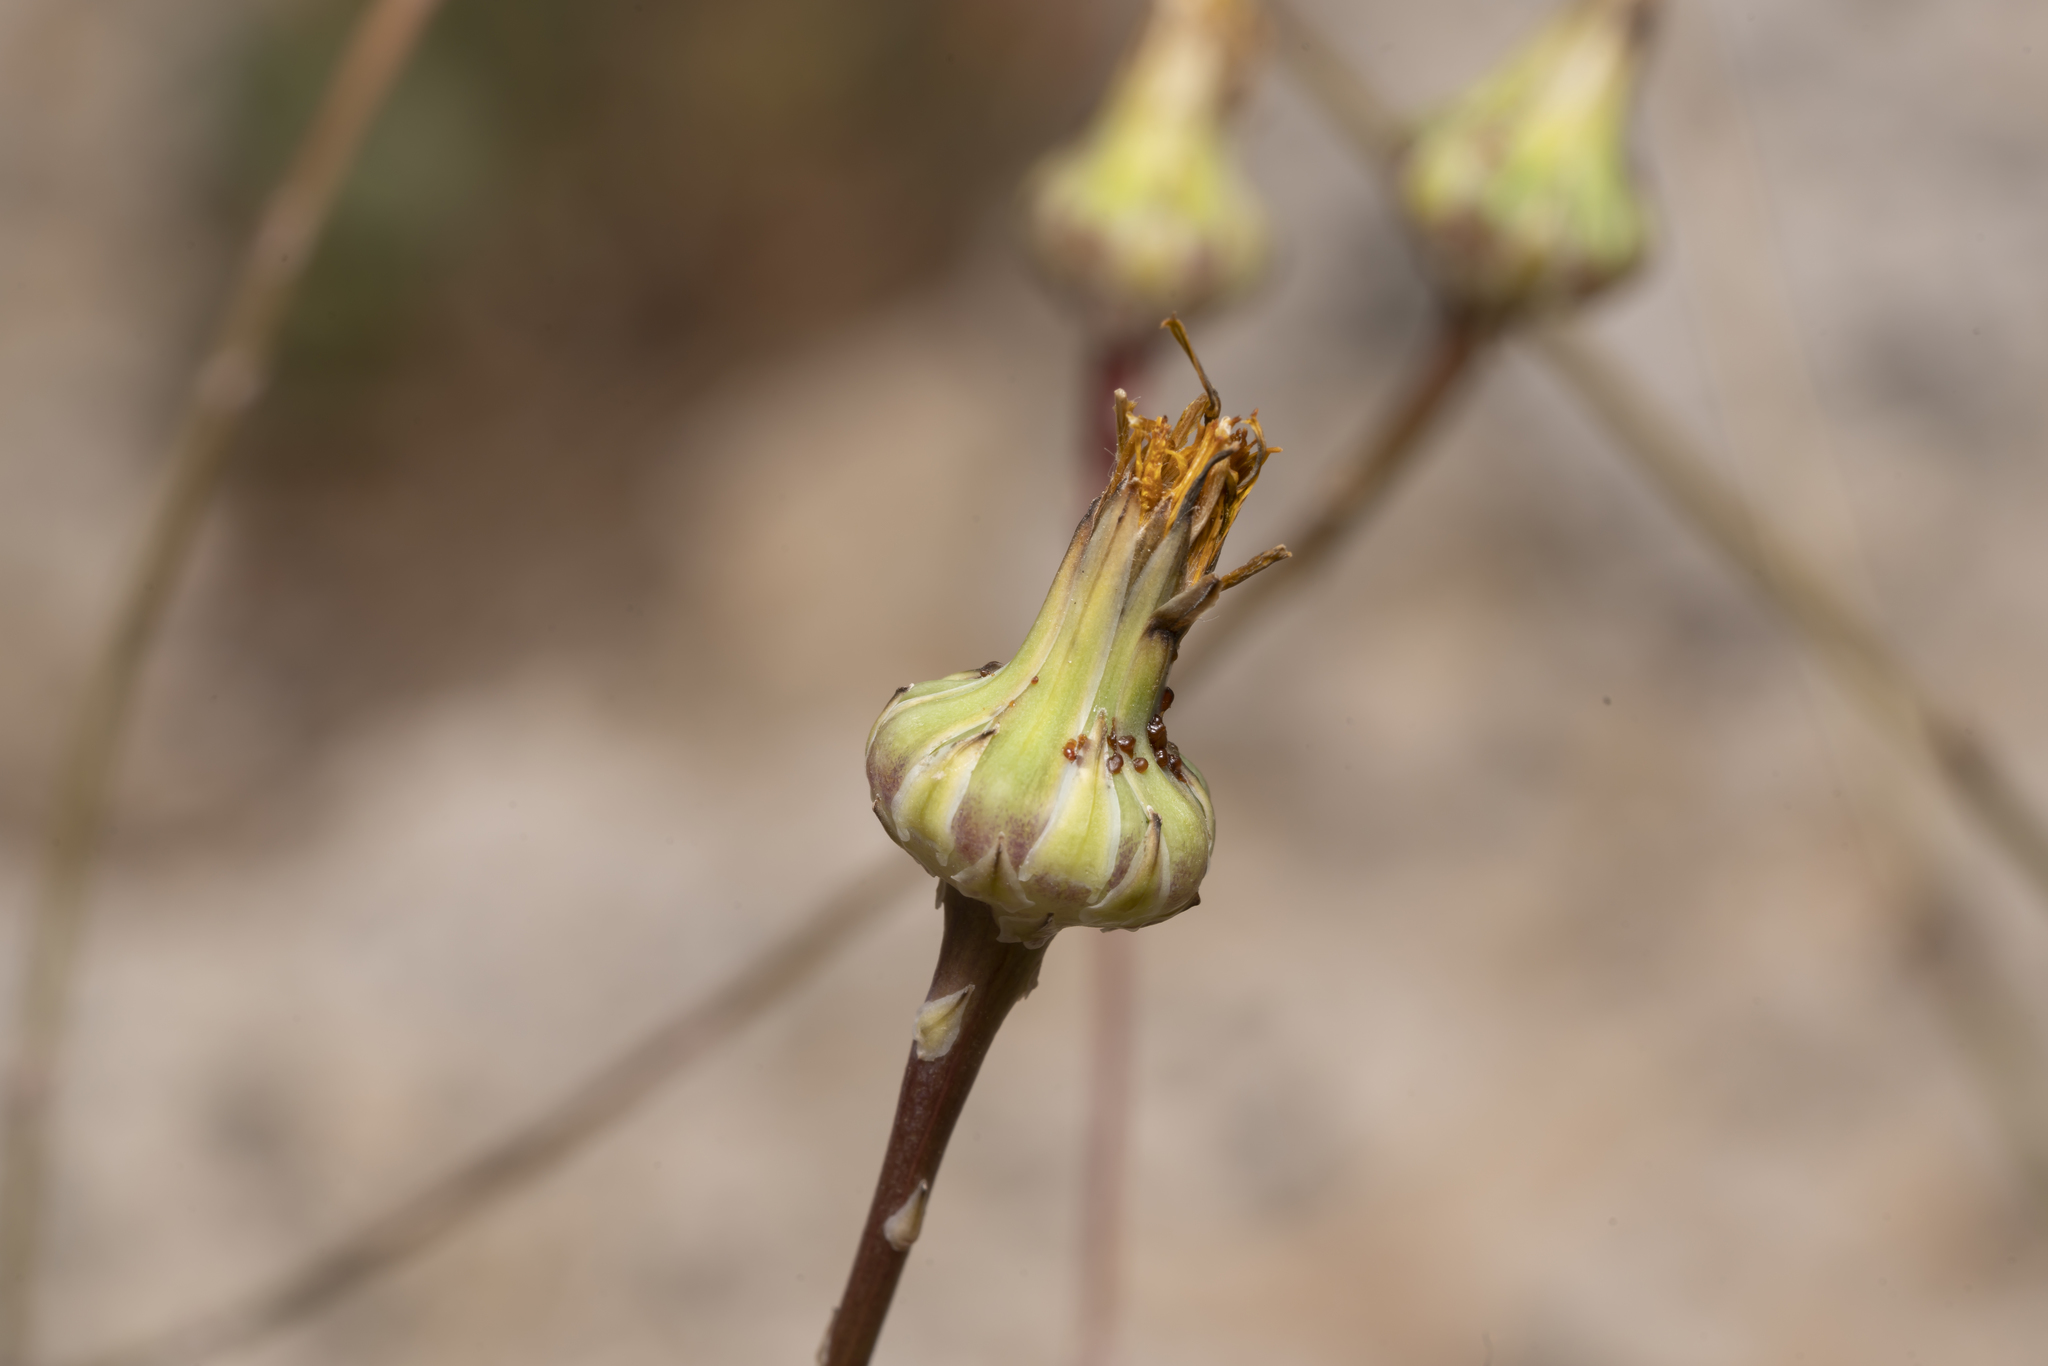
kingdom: Plantae
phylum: Tracheophyta
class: Magnoliopsida
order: Asterales
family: Asteraceae
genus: Reichardia
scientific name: Reichardia picroides
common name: Common brighteyes
